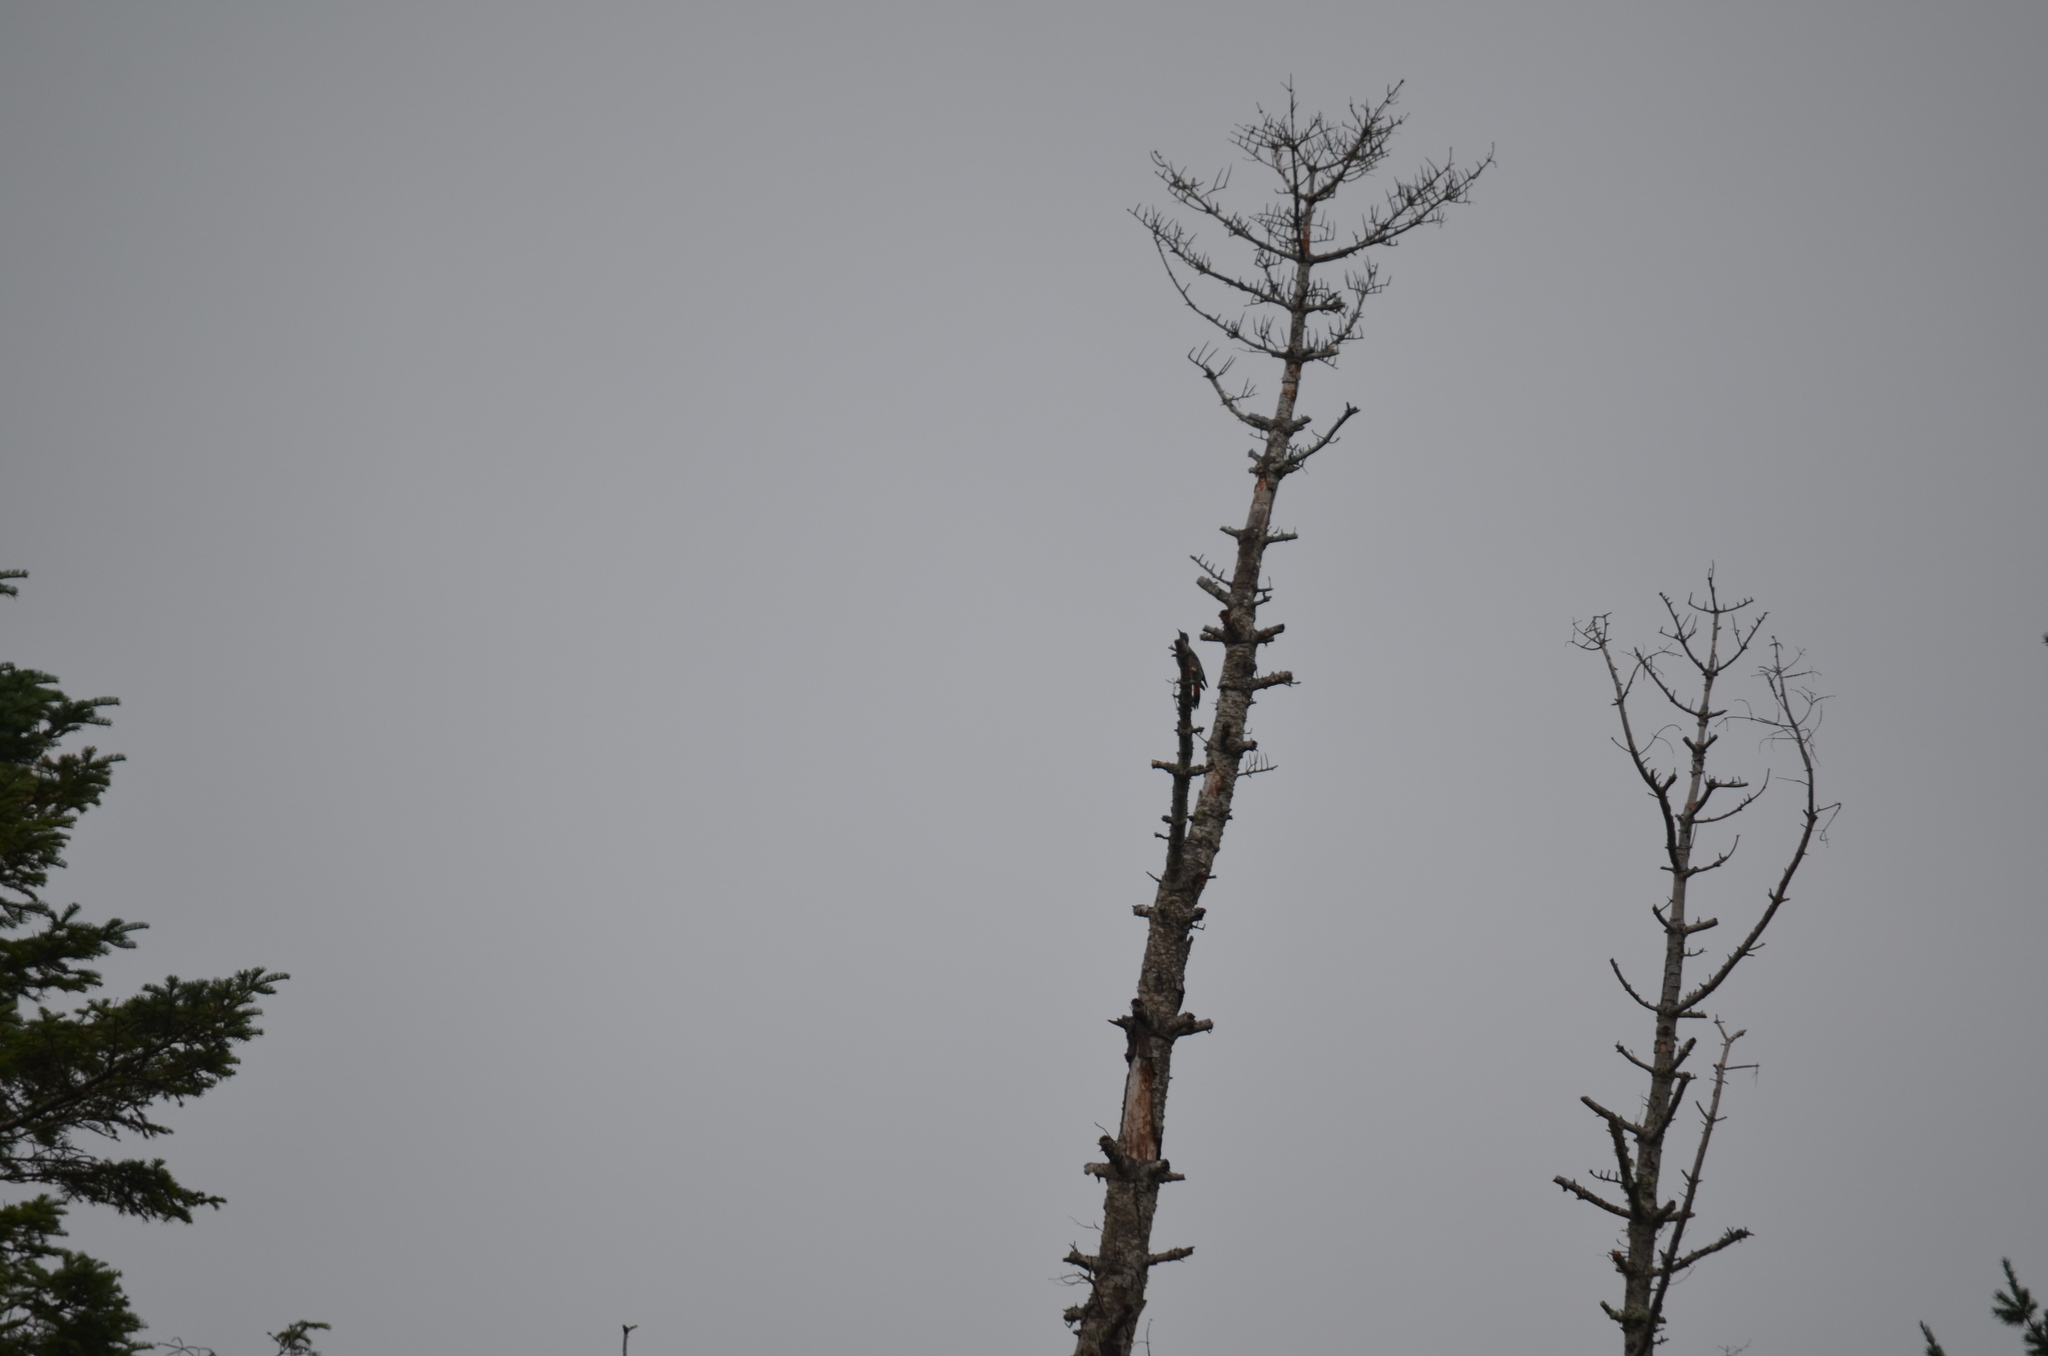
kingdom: Animalia
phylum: Chordata
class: Aves
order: Piciformes
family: Picidae
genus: Colaptes
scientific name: Colaptes auratus
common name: Northern flicker
